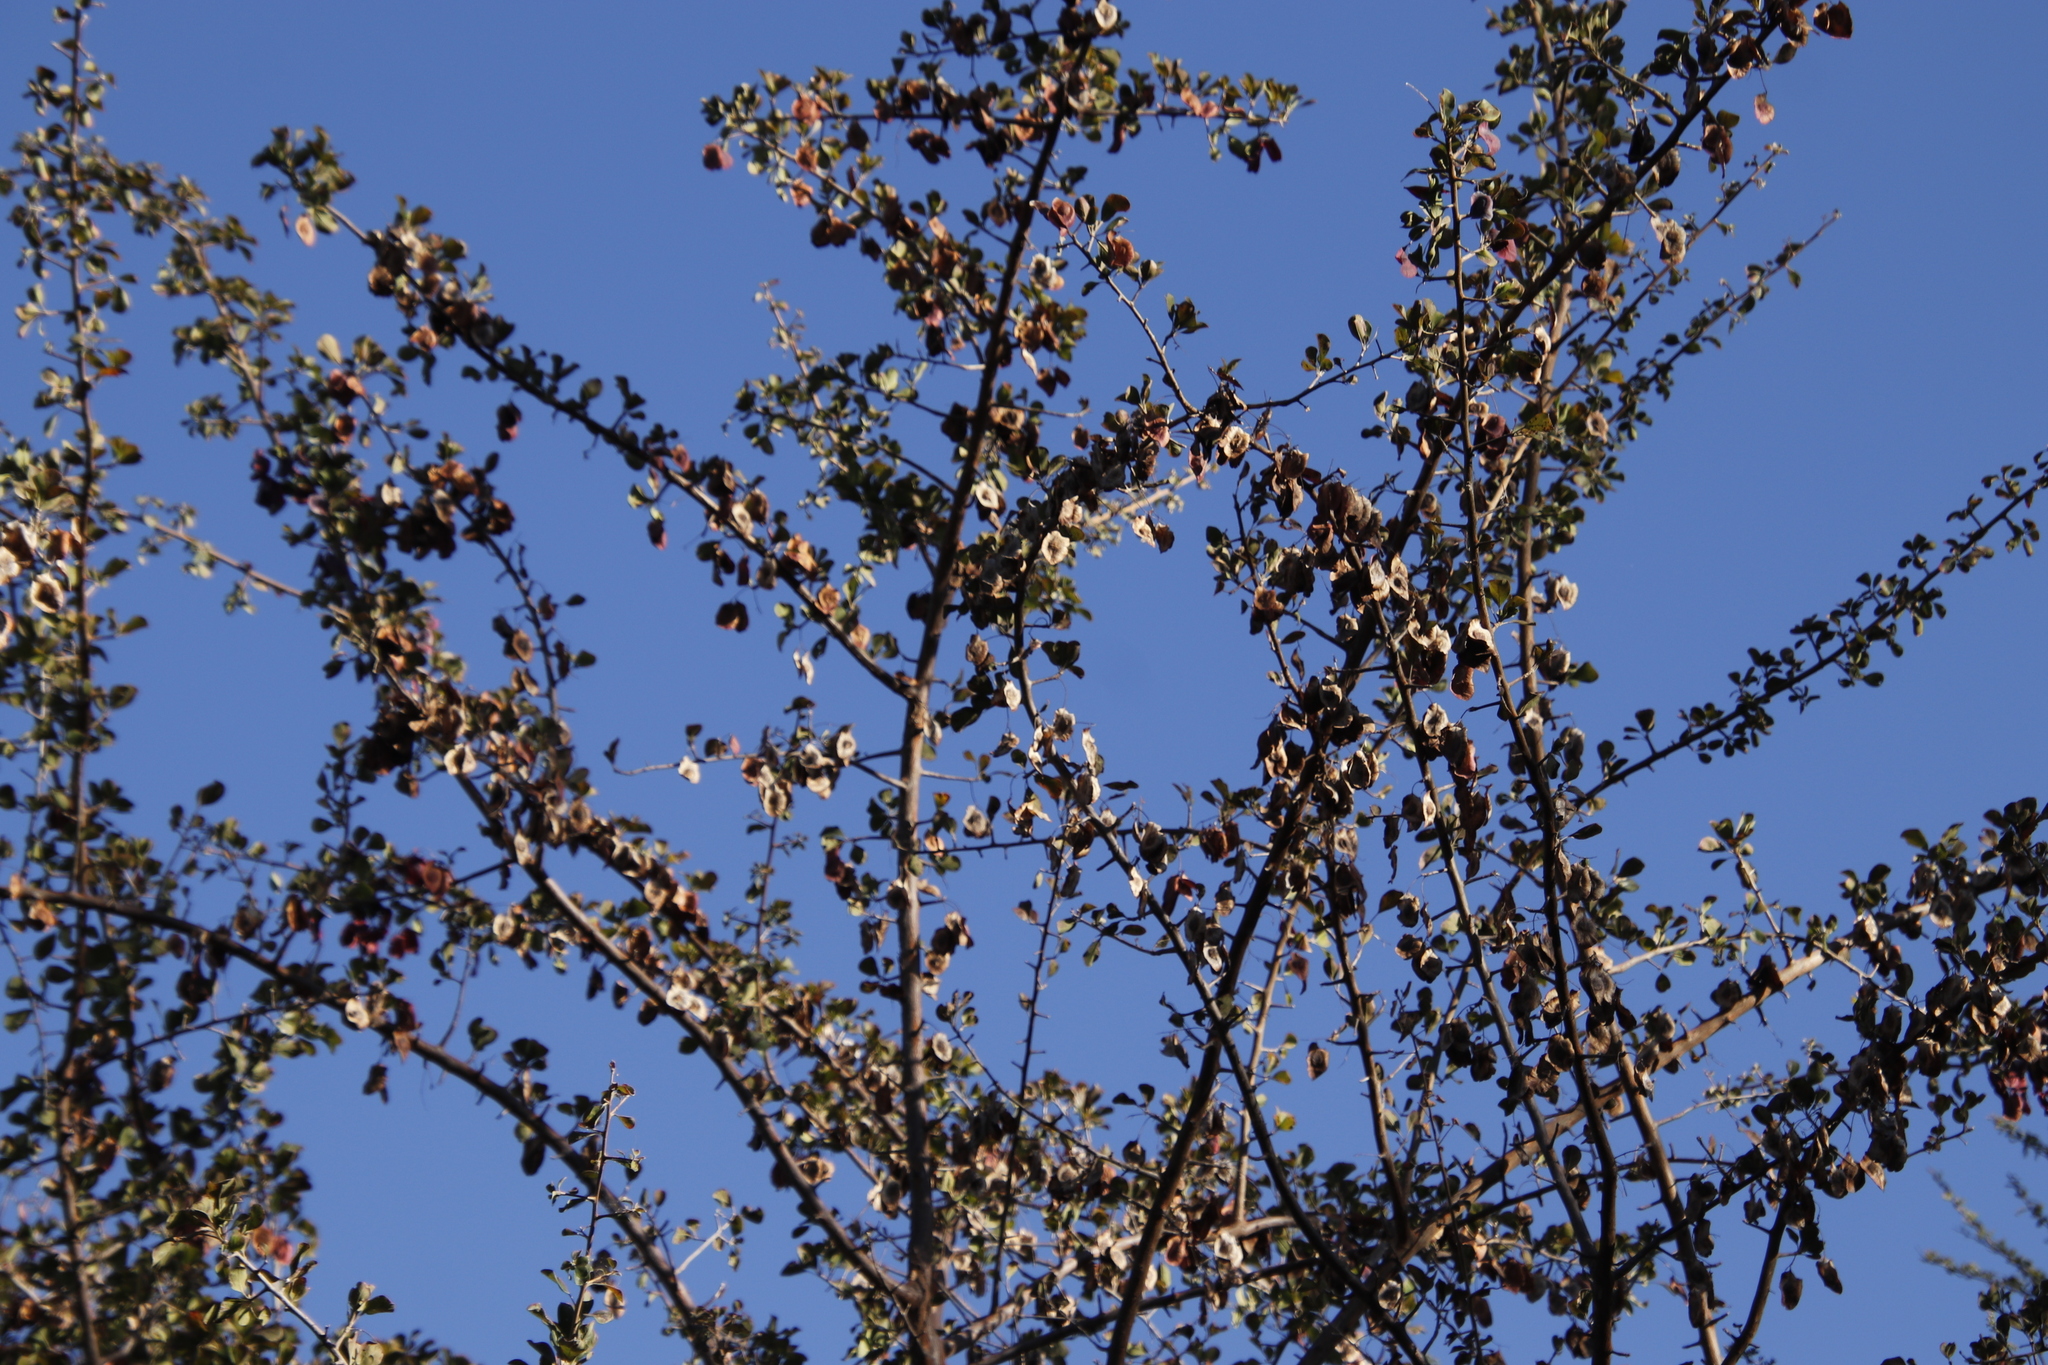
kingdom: Plantae
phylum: Tracheophyta
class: Magnoliopsida
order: Myrtales
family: Combretaceae
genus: Terminalia
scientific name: Terminalia prunioides
